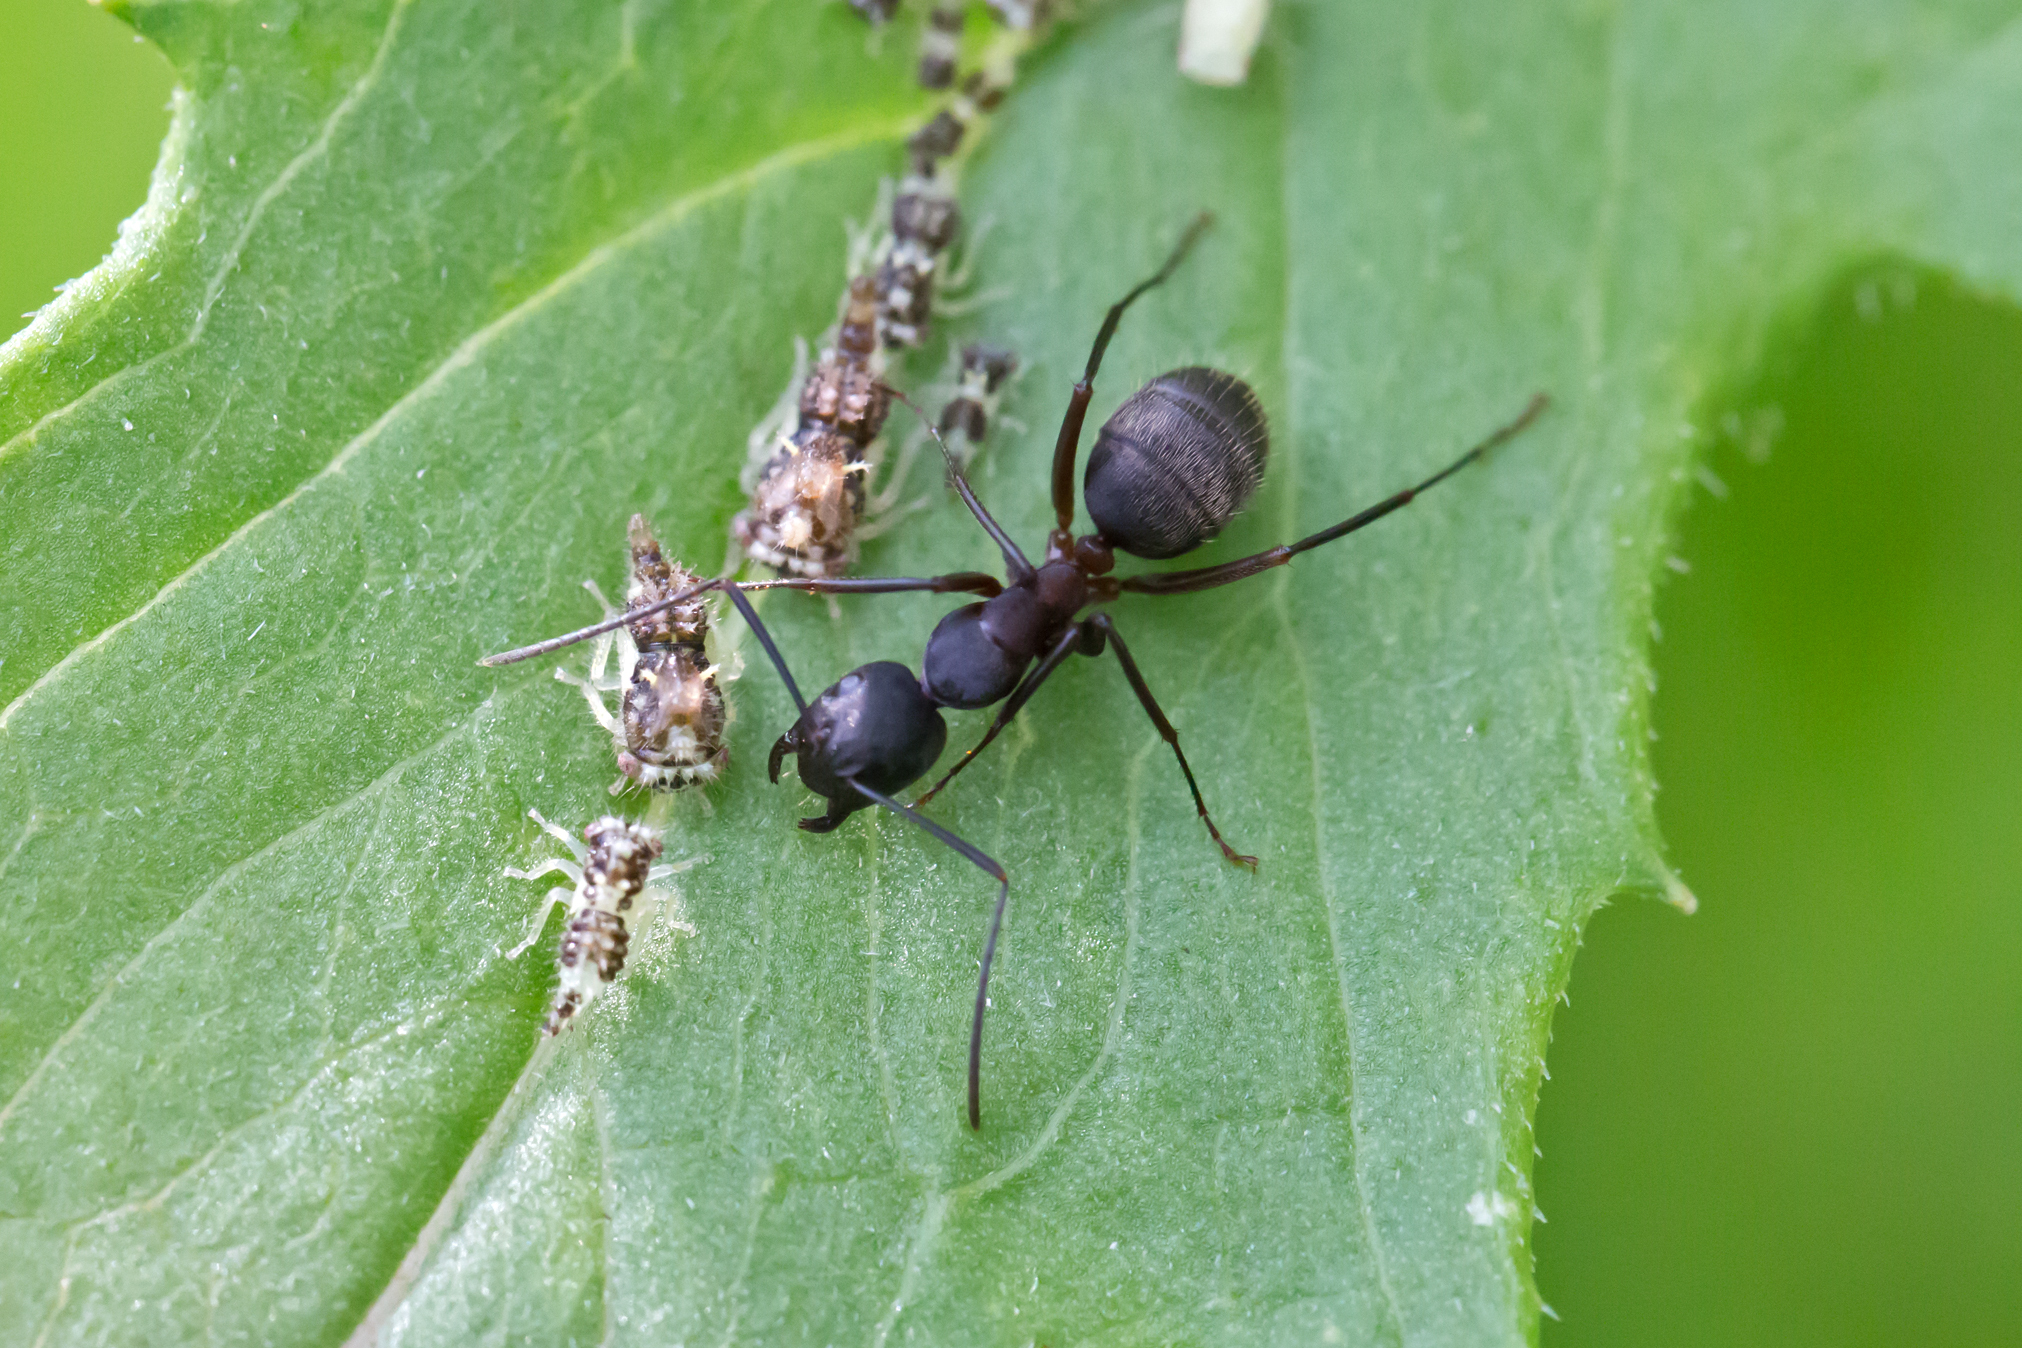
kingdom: Animalia
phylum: Arthropoda
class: Insecta
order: Hymenoptera
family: Formicidae
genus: Camponotus
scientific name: Camponotus chromaiodes
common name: Red carpenter ant
